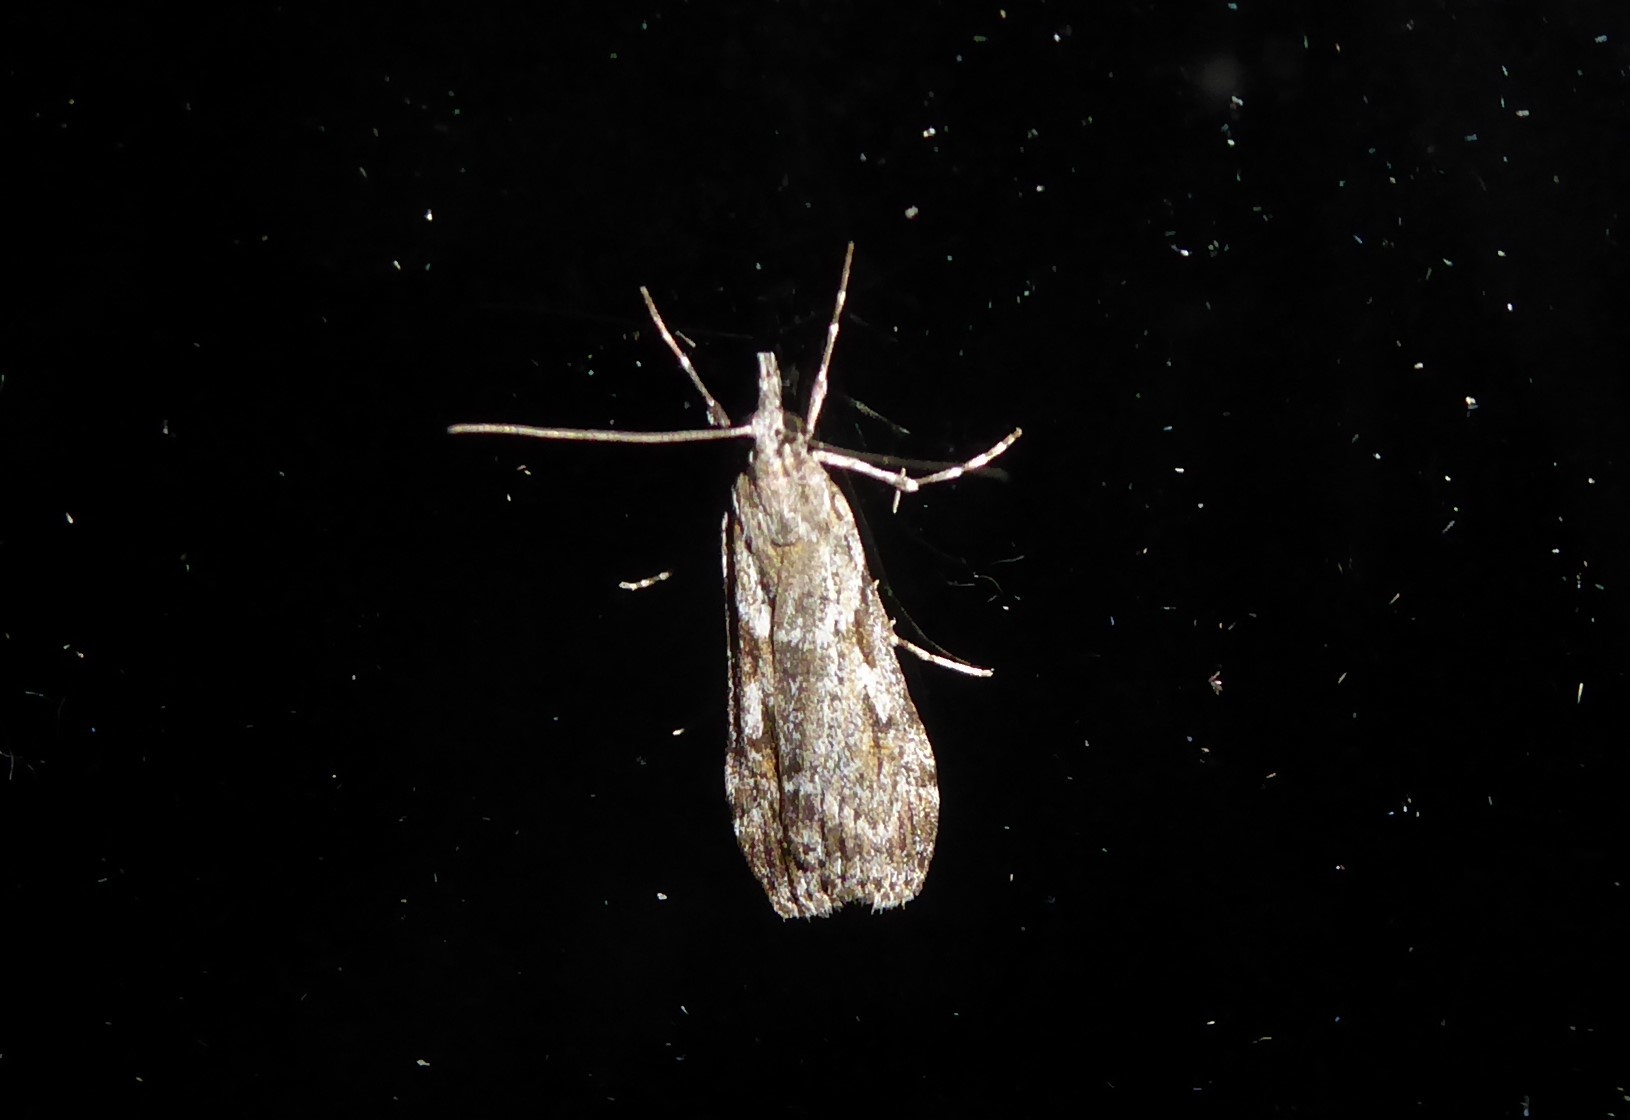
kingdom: Animalia
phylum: Arthropoda
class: Insecta
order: Lepidoptera
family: Crambidae
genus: Scoparia
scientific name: Scoparia halopis
